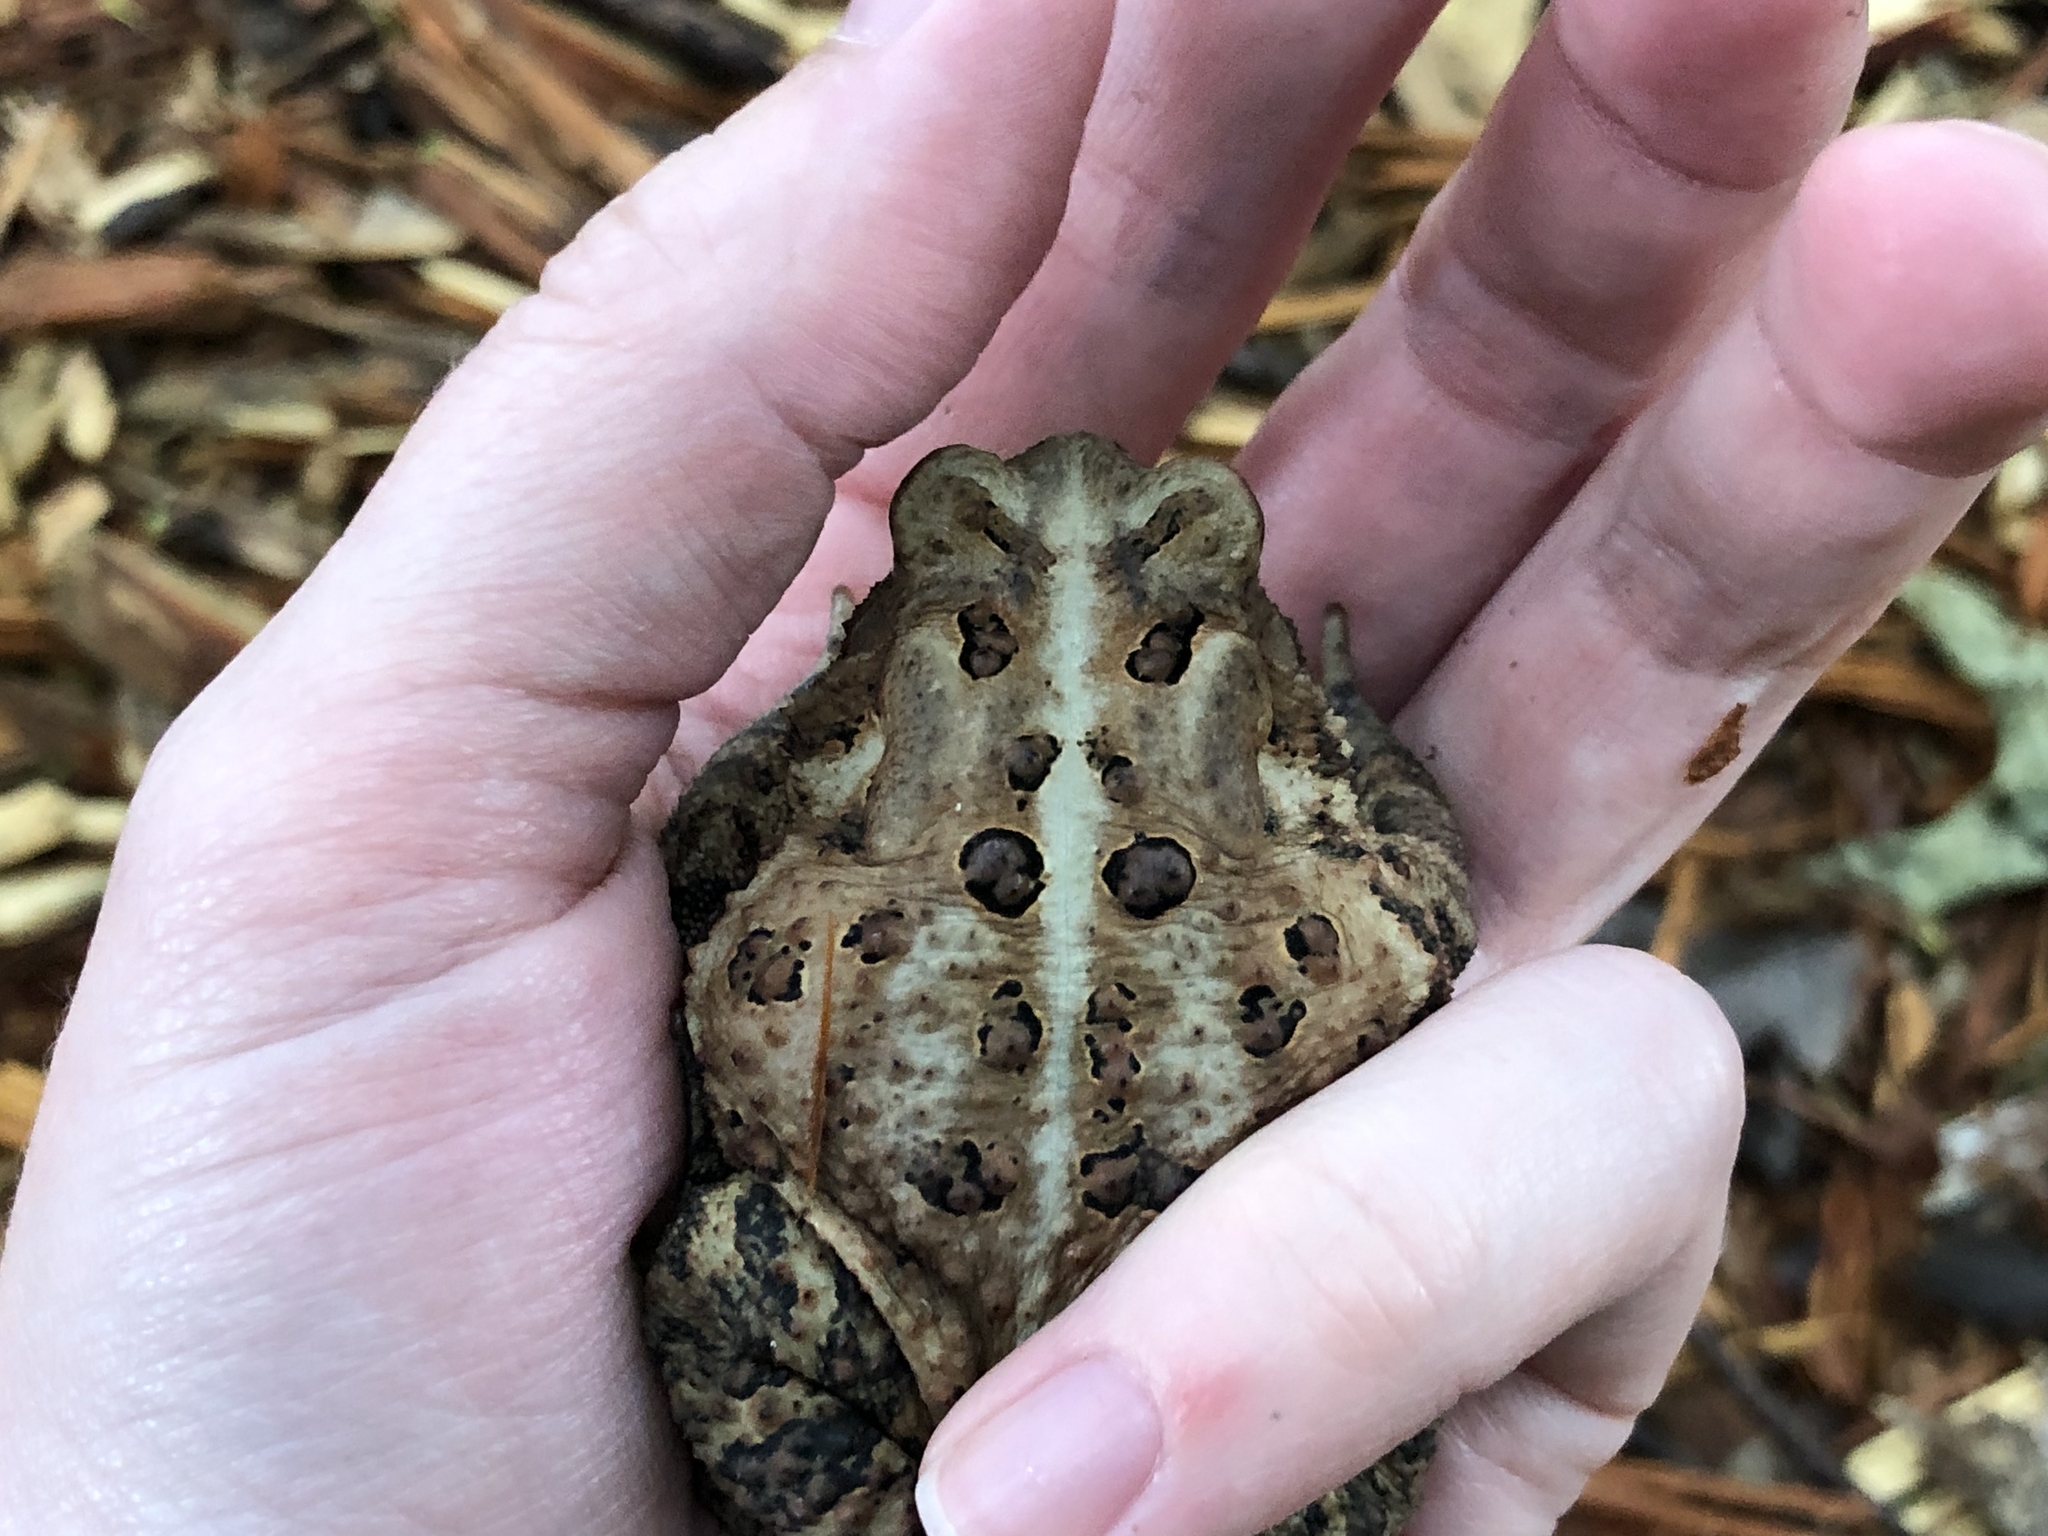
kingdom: Animalia
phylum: Chordata
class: Amphibia
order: Anura
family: Bufonidae
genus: Anaxyrus
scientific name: Anaxyrus americanus
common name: American toad
